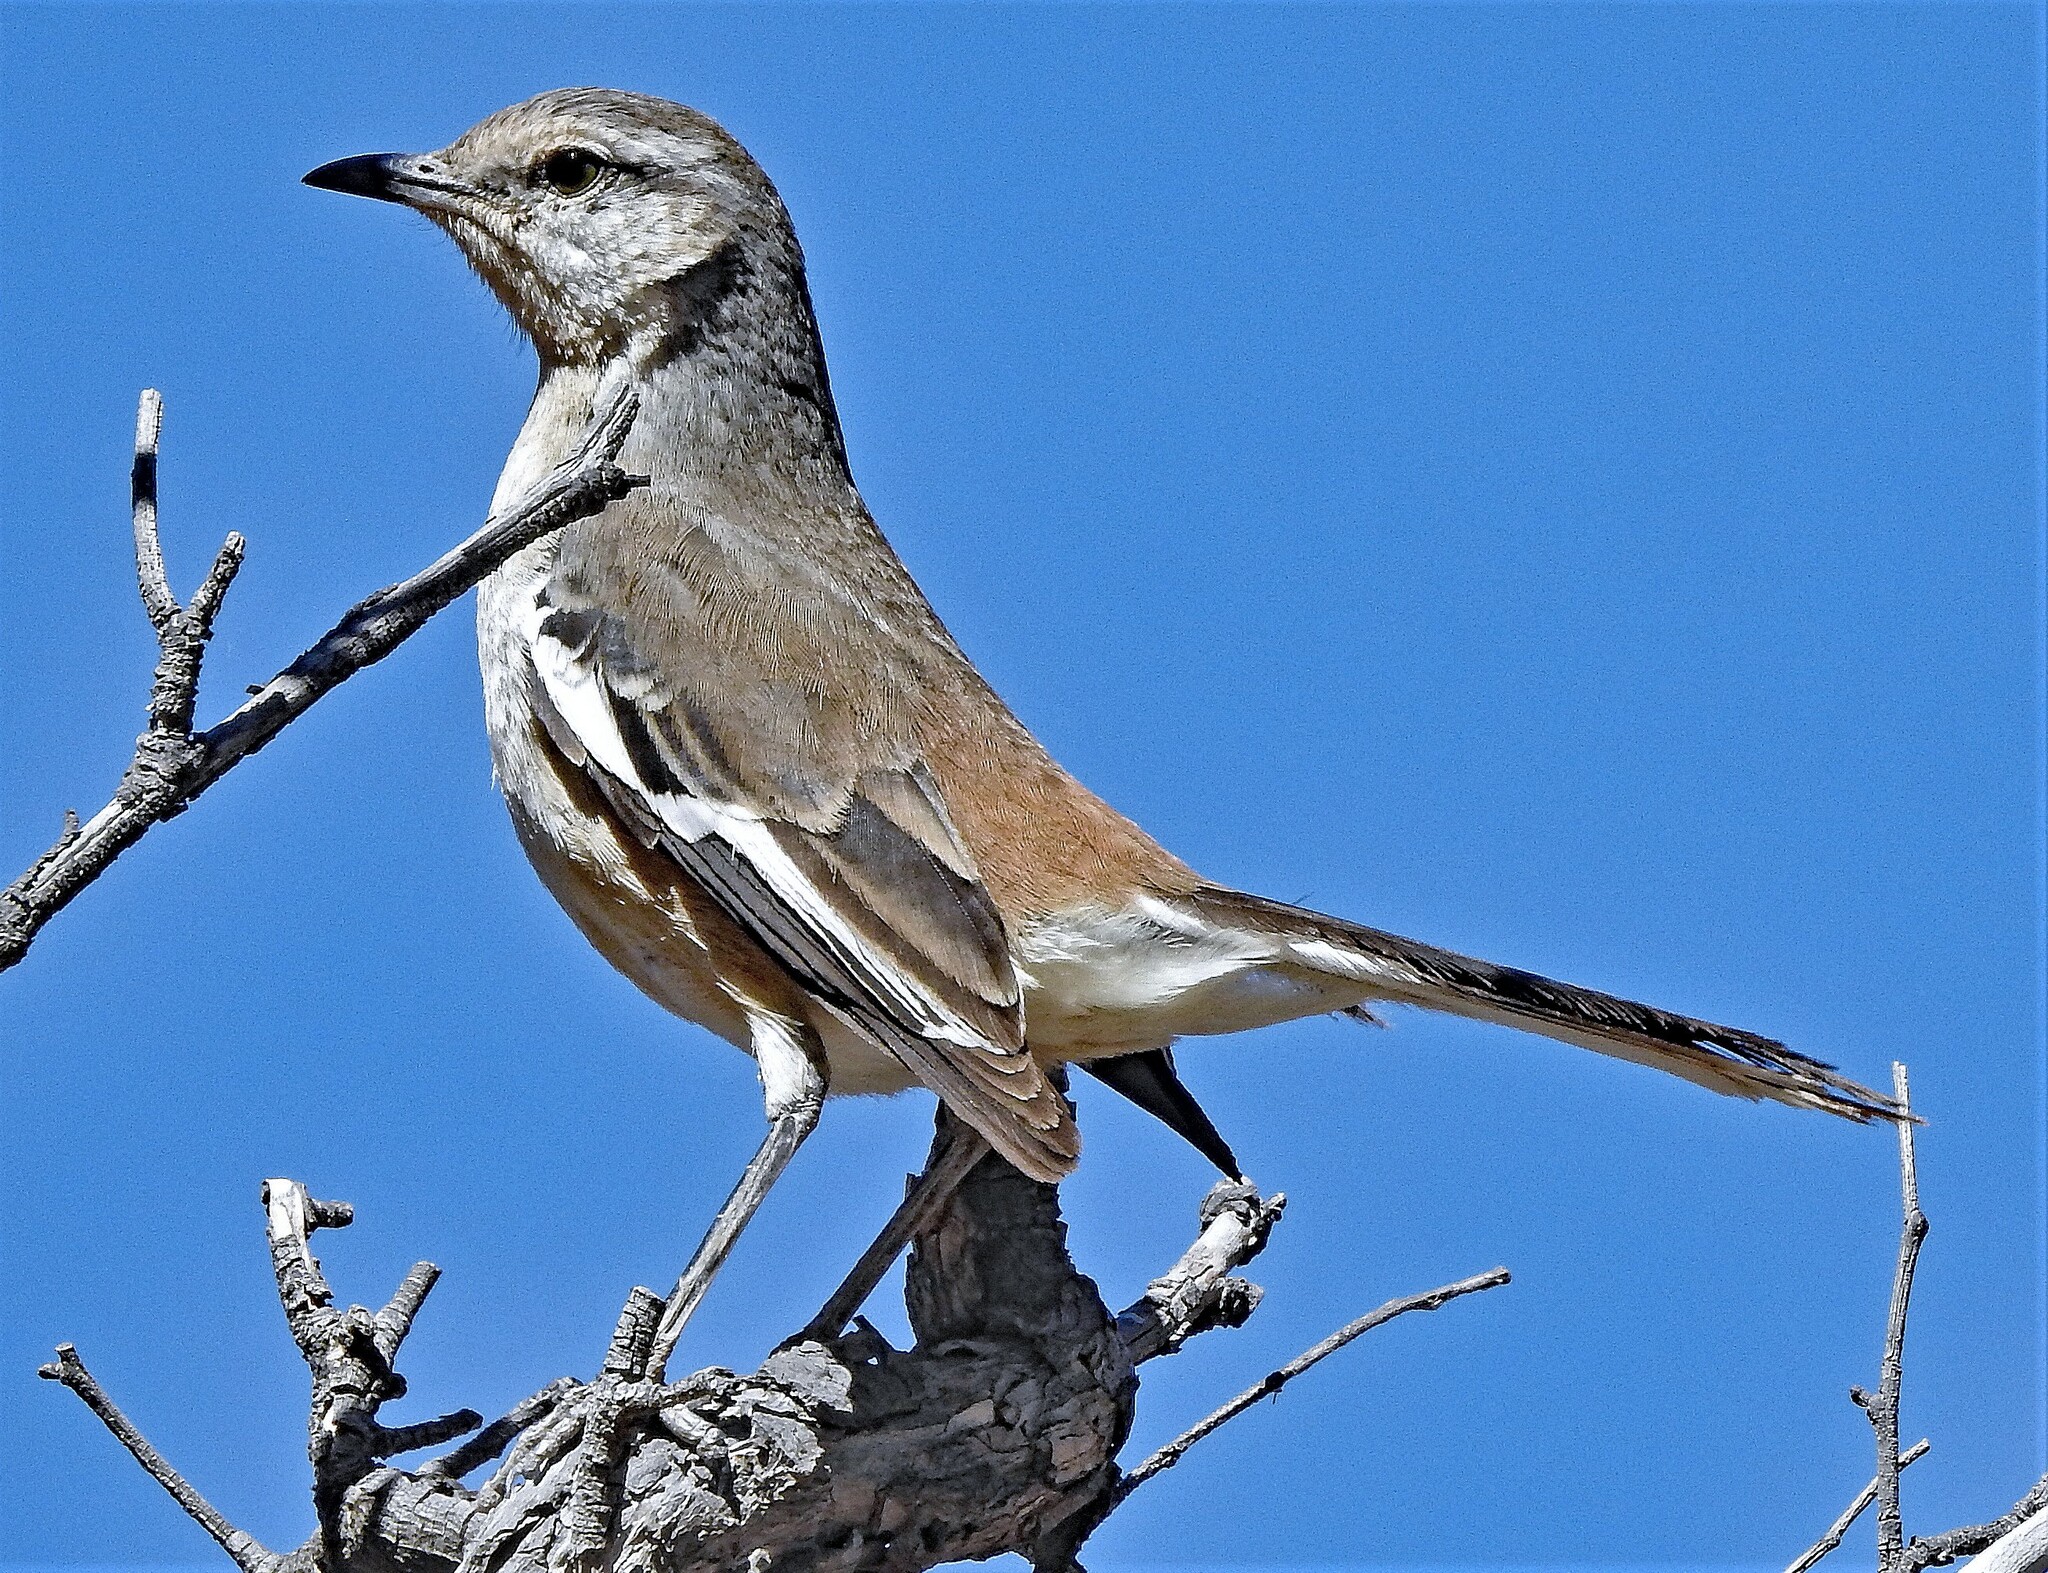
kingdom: Animalia
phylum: Chordata
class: Aves
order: Passeriformes
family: Mimidae
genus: Mimus
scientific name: Mimus triurus
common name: White-banded mockingbird
